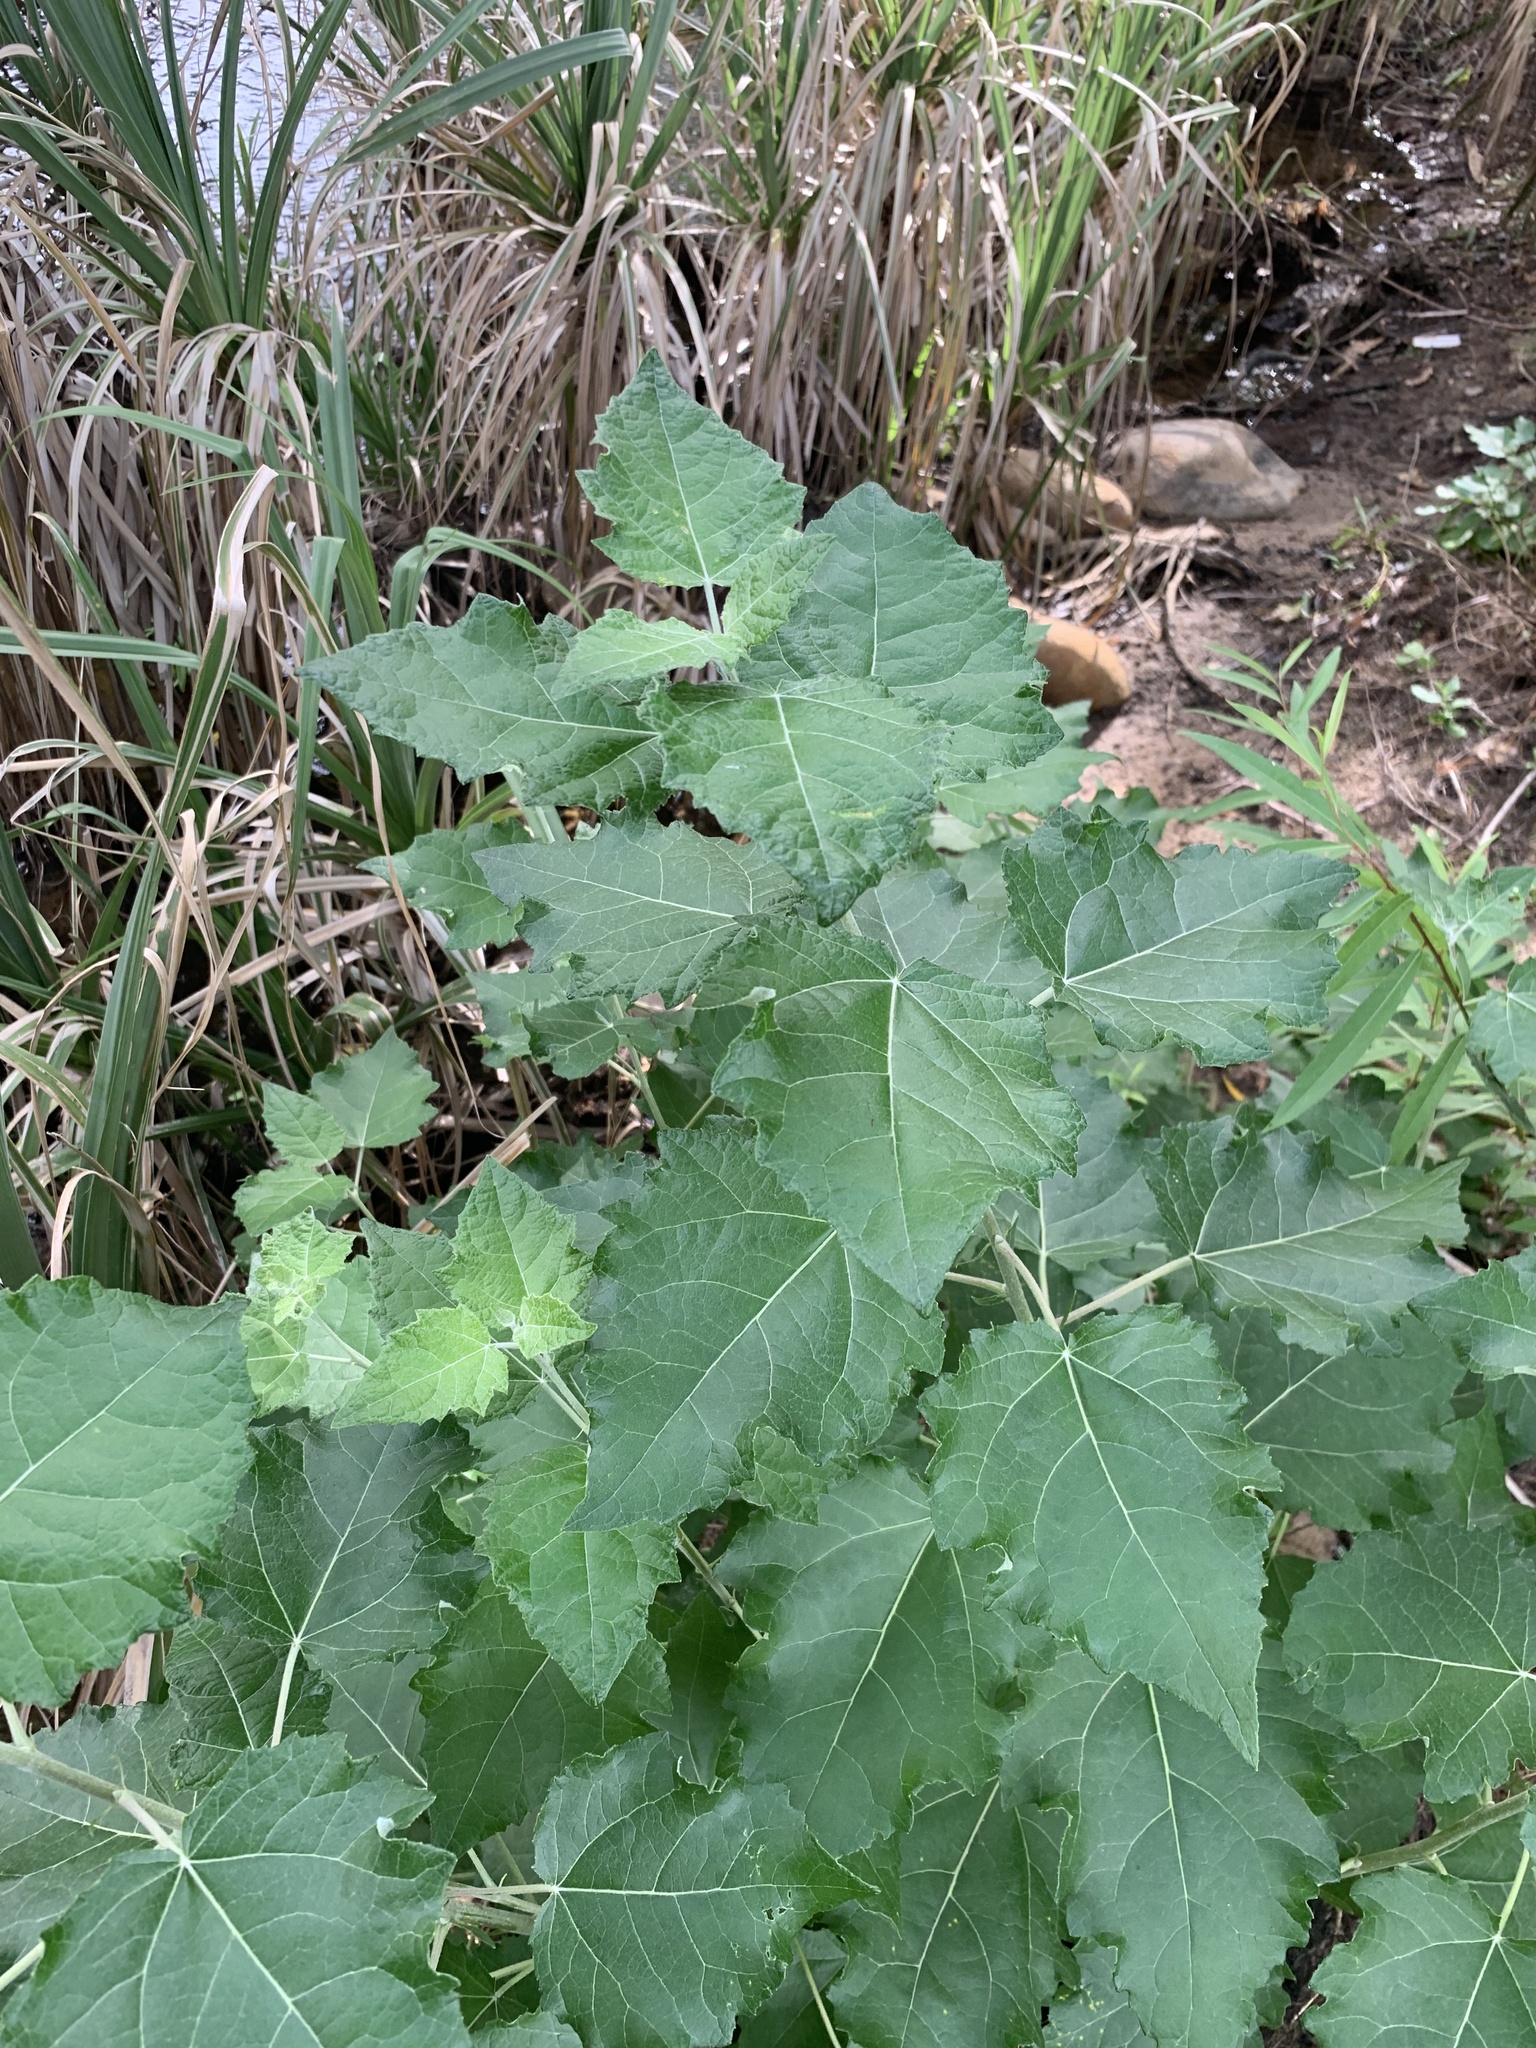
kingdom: Plantae
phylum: Tracheophyta
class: Magnoliopsida
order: Malpighiales
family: Salicaceae
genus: Populus
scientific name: Populus canescens
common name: Gray poplar
